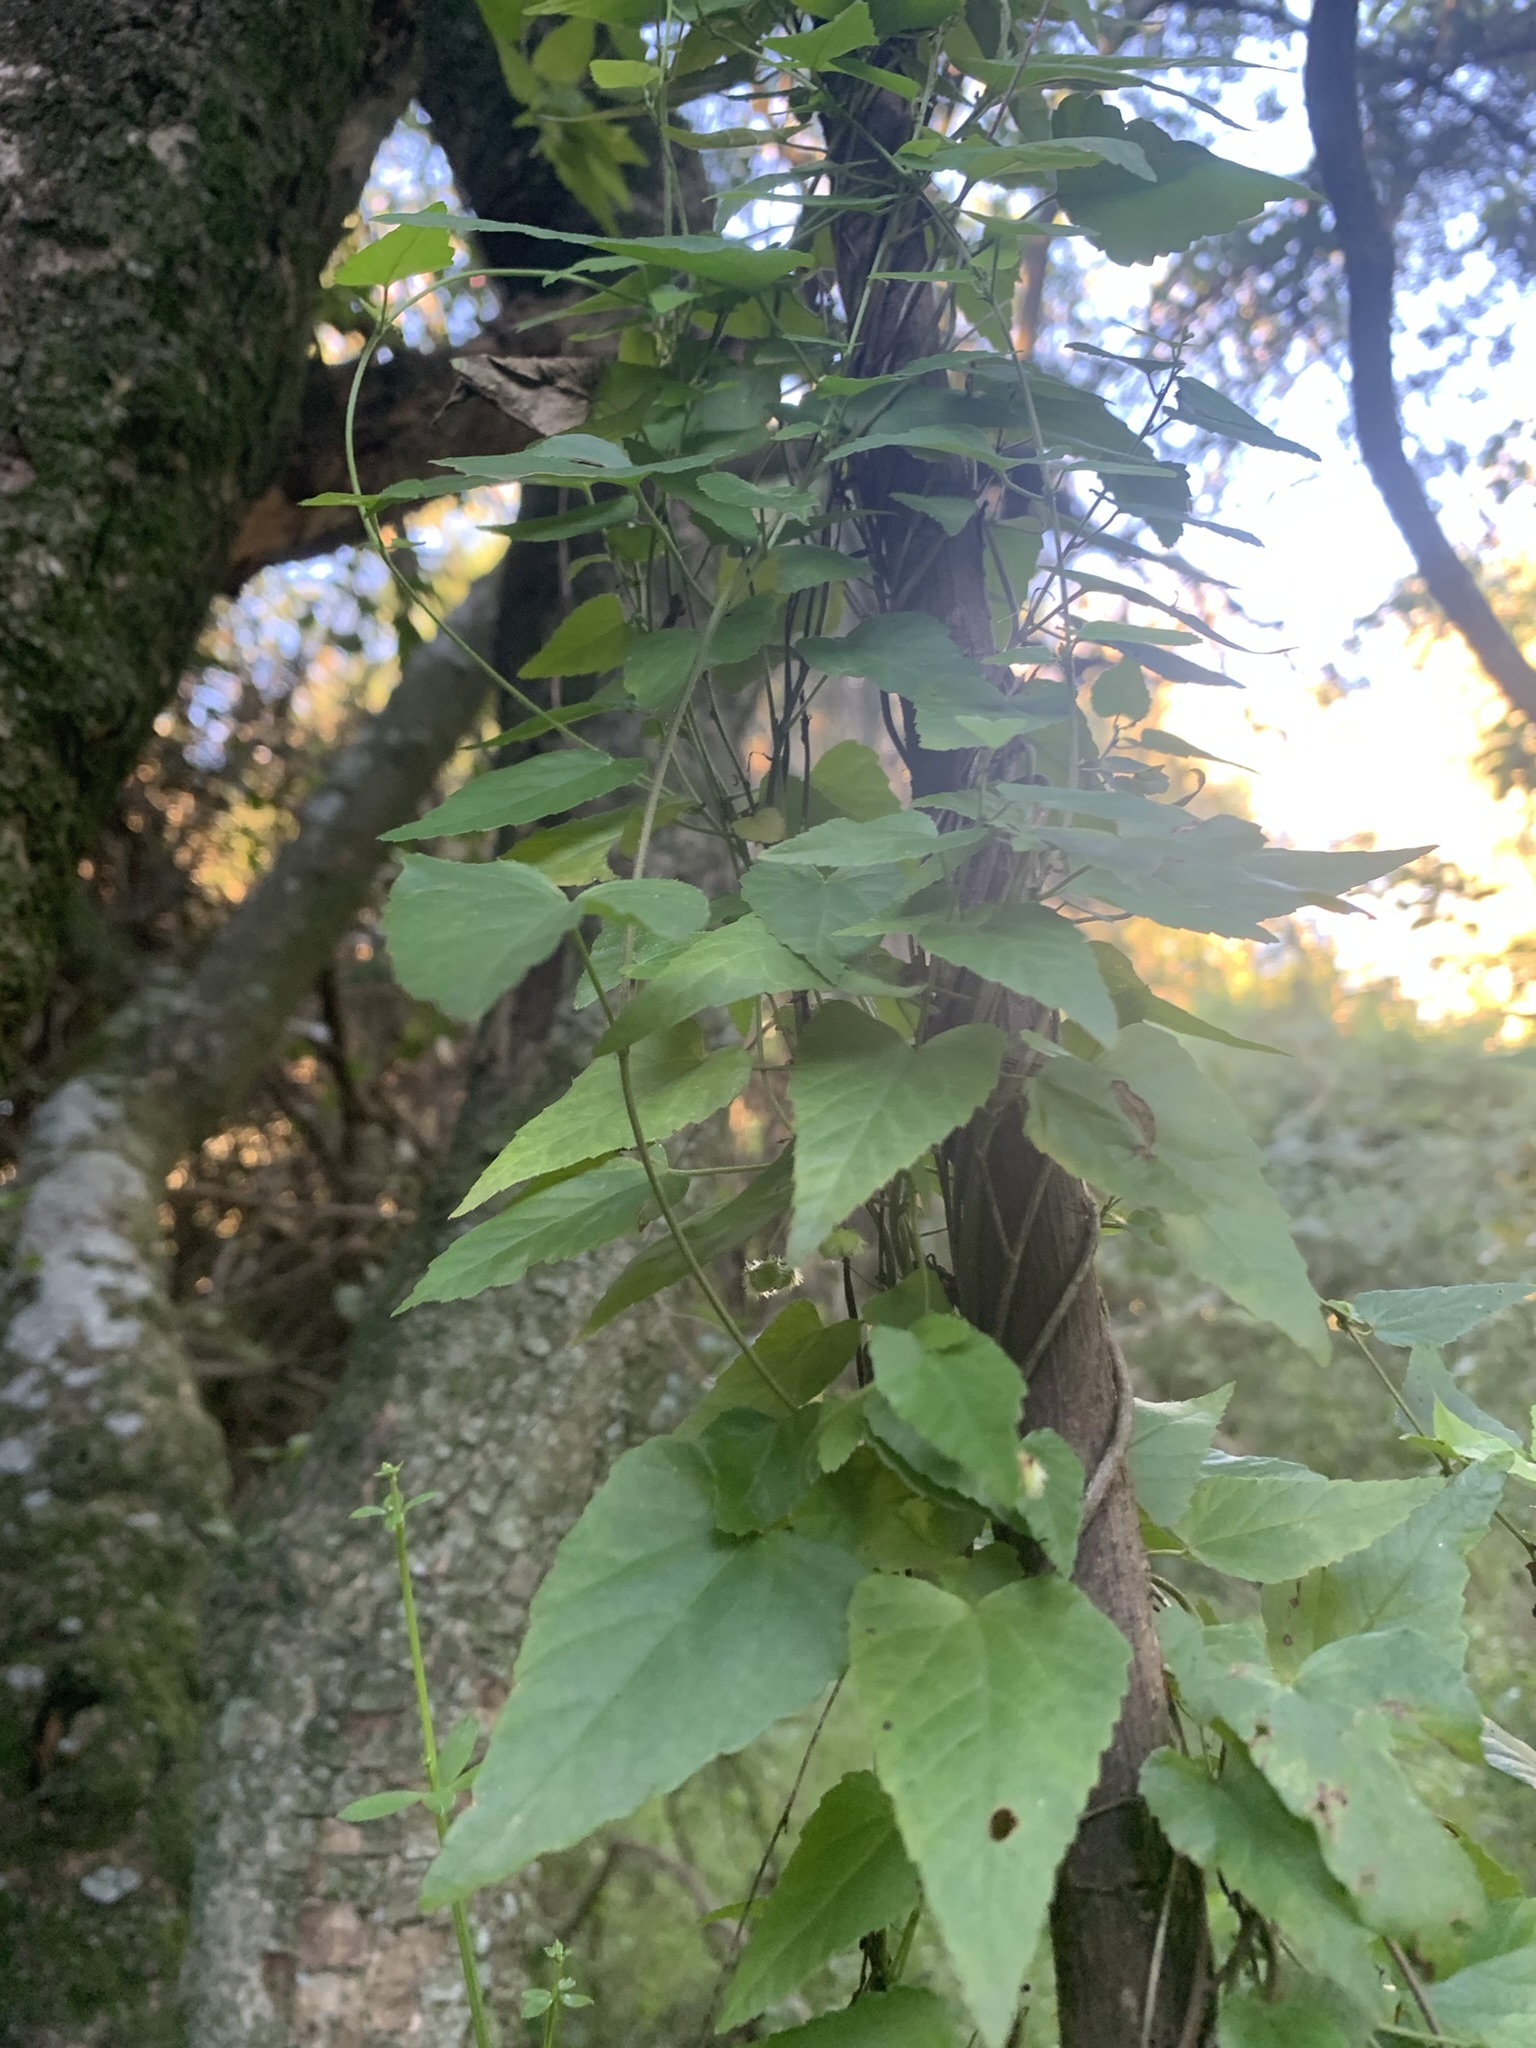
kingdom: Plantae
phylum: Tracheophyta
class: Magnoliopsida
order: Vitales
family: Vitaceae
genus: Cissus
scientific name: Cissus verticillata
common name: Princess vine
